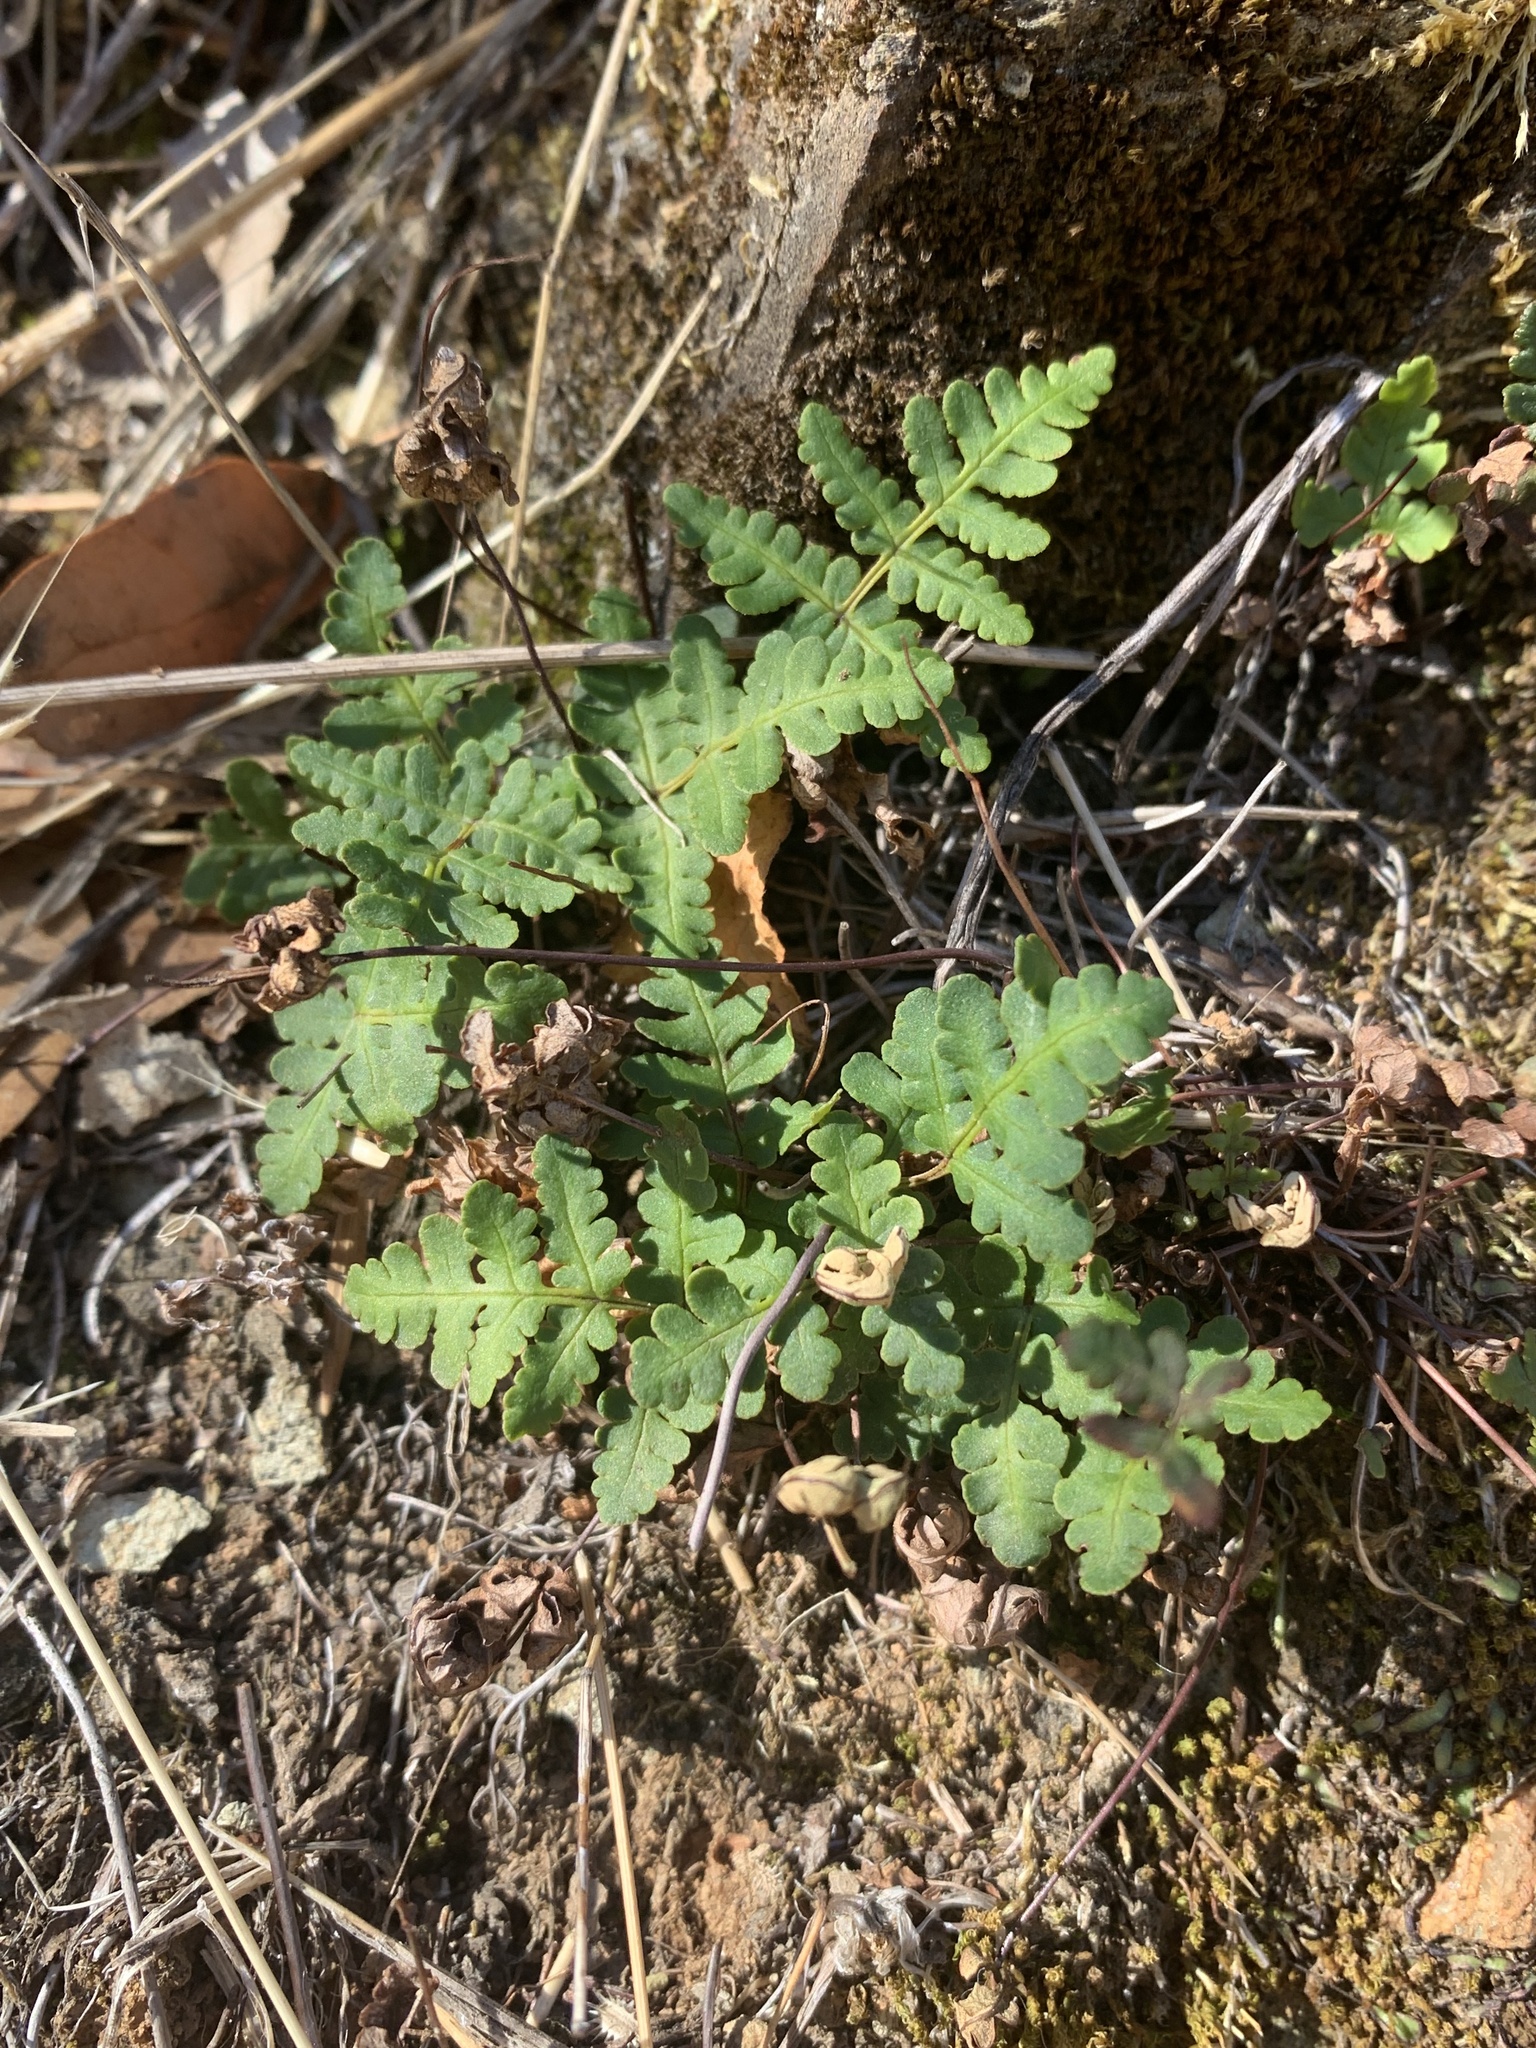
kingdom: Plantae
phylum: Tracheophyta
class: Polypodiopsida
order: Polypodiales
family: Pteridaceae
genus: Pentagramma
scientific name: Pentagramma triangularis
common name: Gold fern
